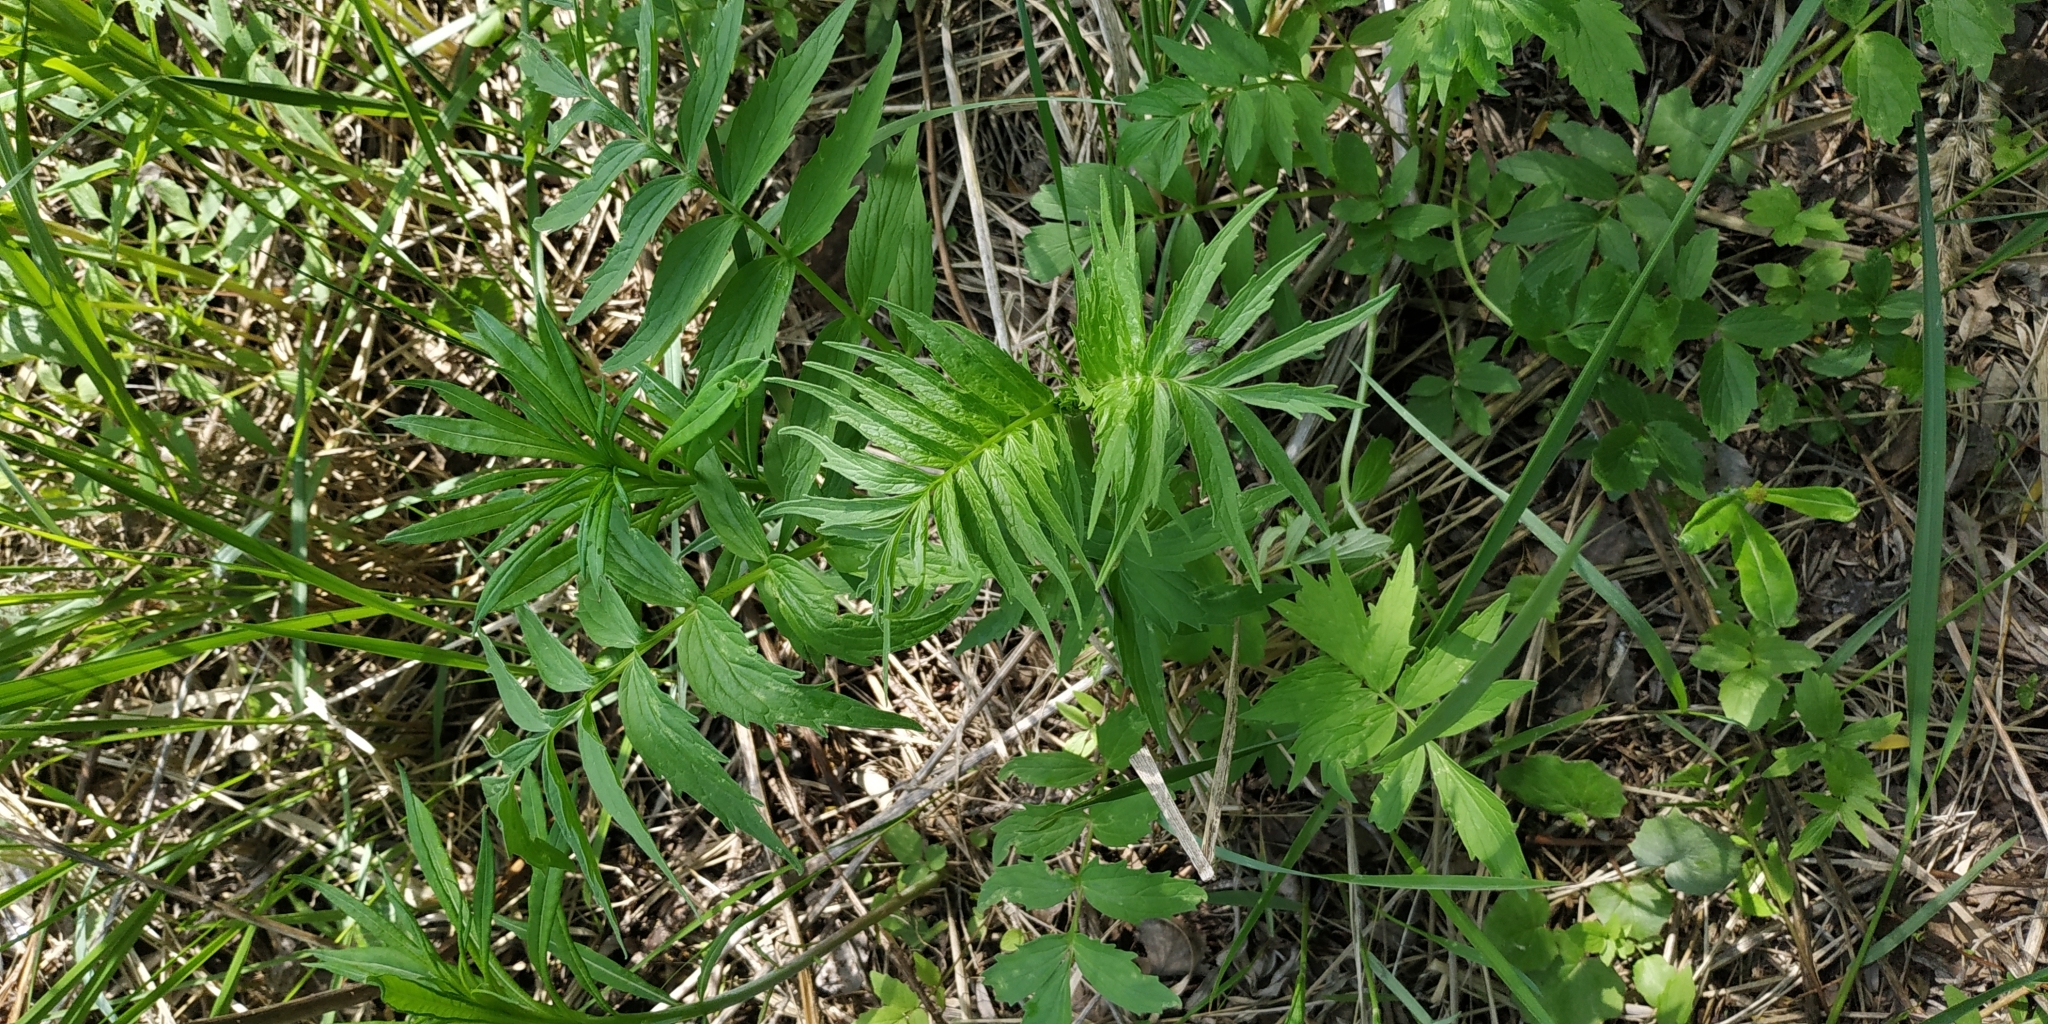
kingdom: Plantae
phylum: Tracheophyta
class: Magnoliopsida
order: Dipsacales
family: Caprifoliaceae
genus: Valeriana
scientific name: Valeriana wolgensis
